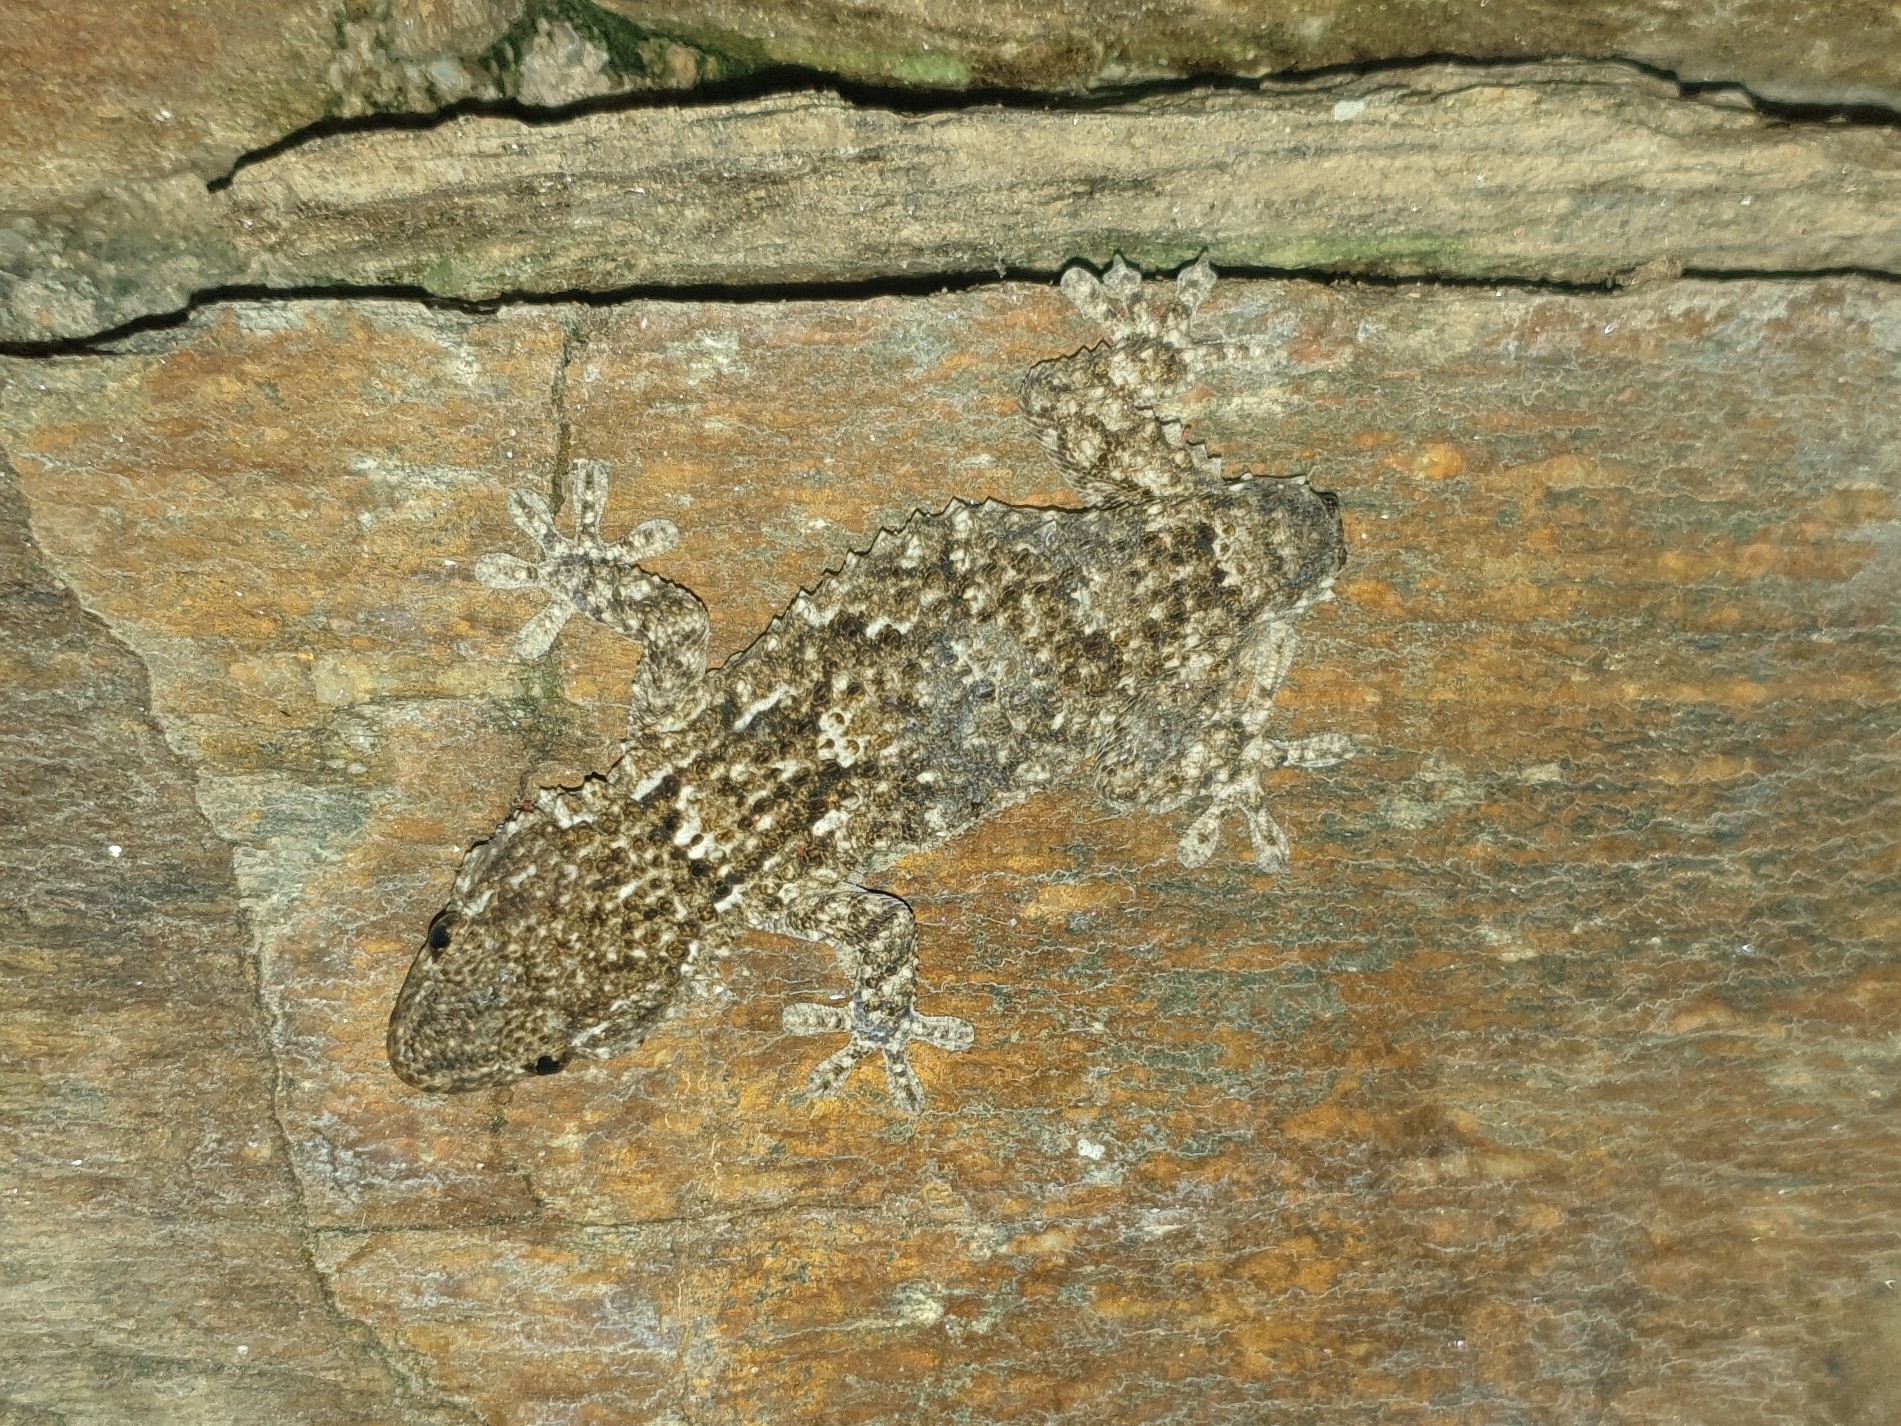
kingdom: Animalia
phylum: Chordata
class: Squamata
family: Phyllodactylidae
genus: Tarentola
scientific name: Tarentola mauritanica
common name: Moorish gecko
